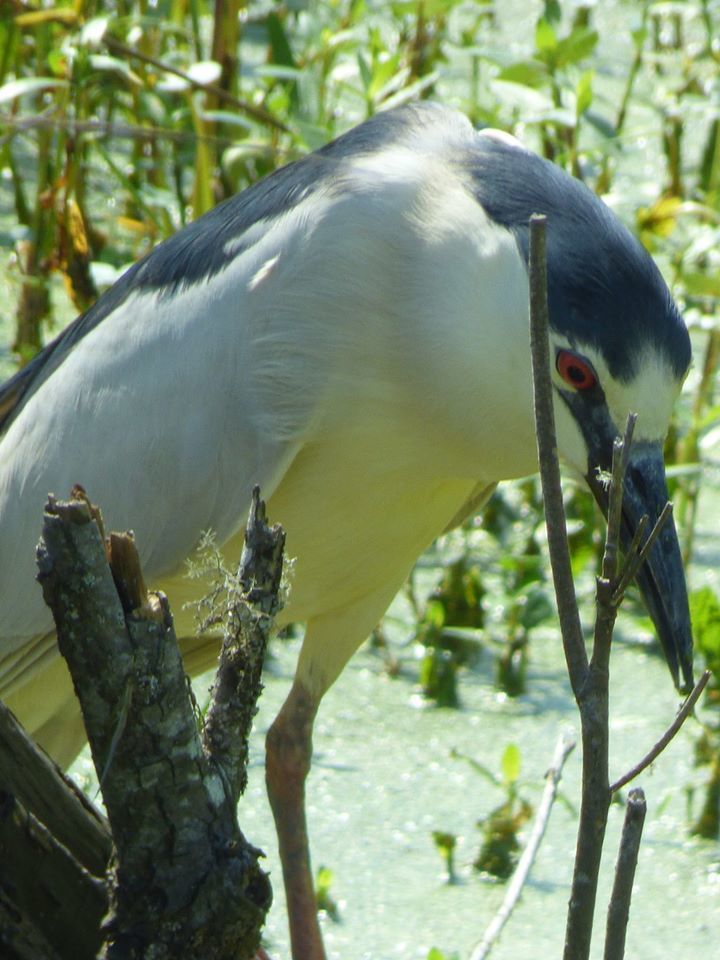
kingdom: Animalia
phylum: Chordata
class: Aves
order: Pelecaniformes
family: Ardeidae
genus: Nycticorax
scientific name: Nycticorax nycticorax
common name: Black-crowned night heron
